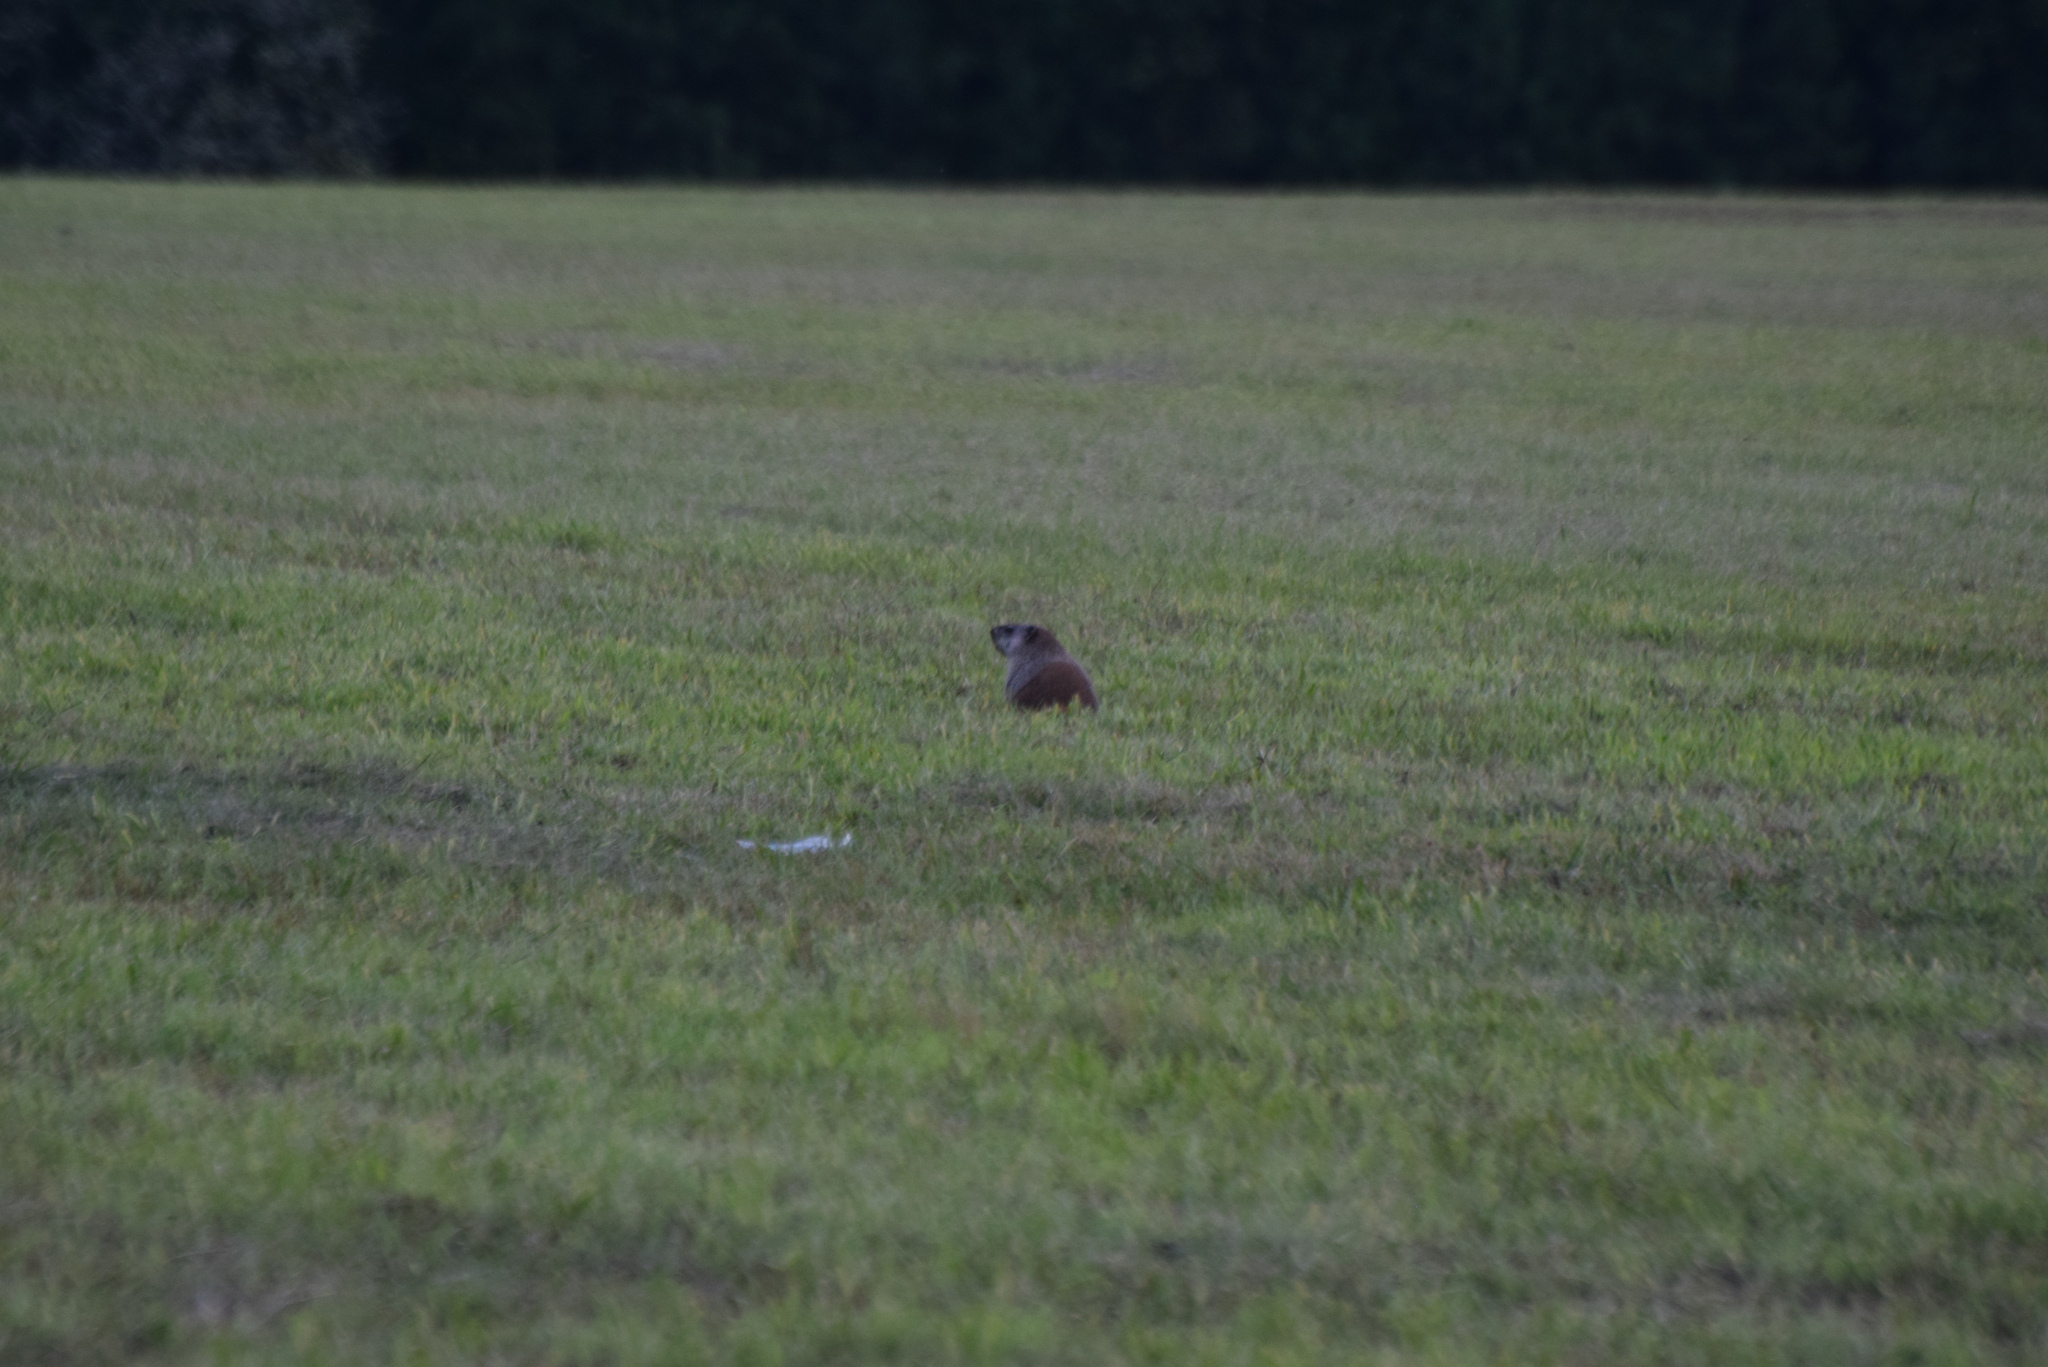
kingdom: Animalia
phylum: Chordata
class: Mammalia
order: Rodentia
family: Sciuridae
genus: Marmota
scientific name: Marmota monax
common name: Groundhog
